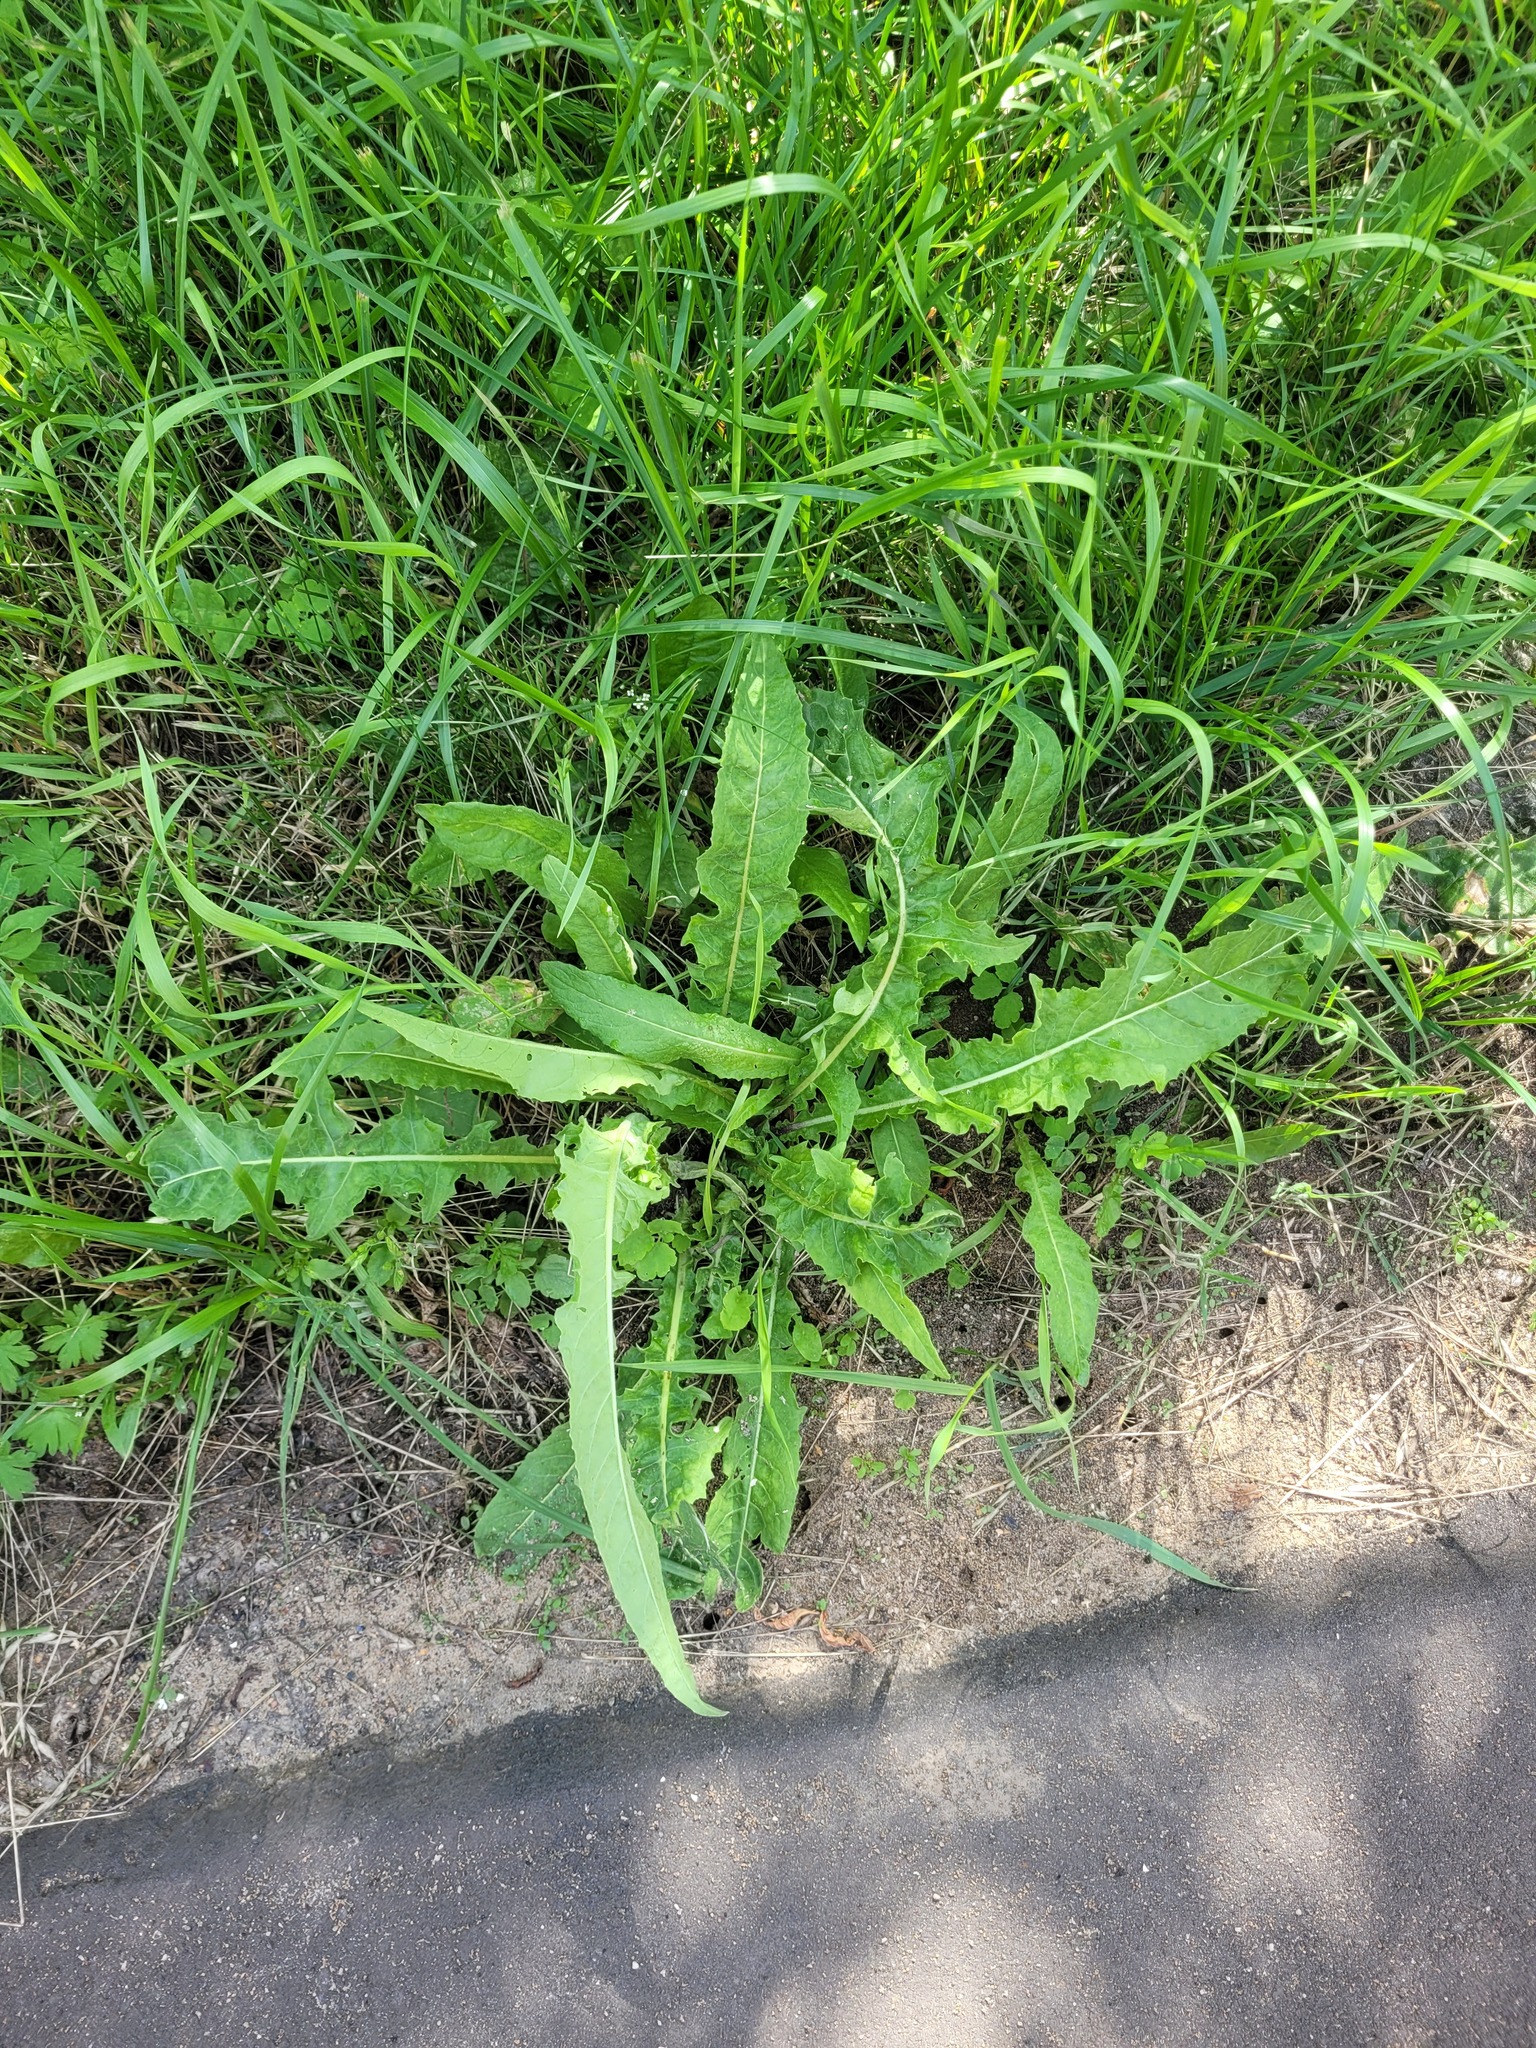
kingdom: Plantae
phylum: Tracheophyta
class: Magnoliopsida
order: Brassicales
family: Brassicaceae
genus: Bunias
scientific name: Bunias orientalis
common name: Warty-cabbage
